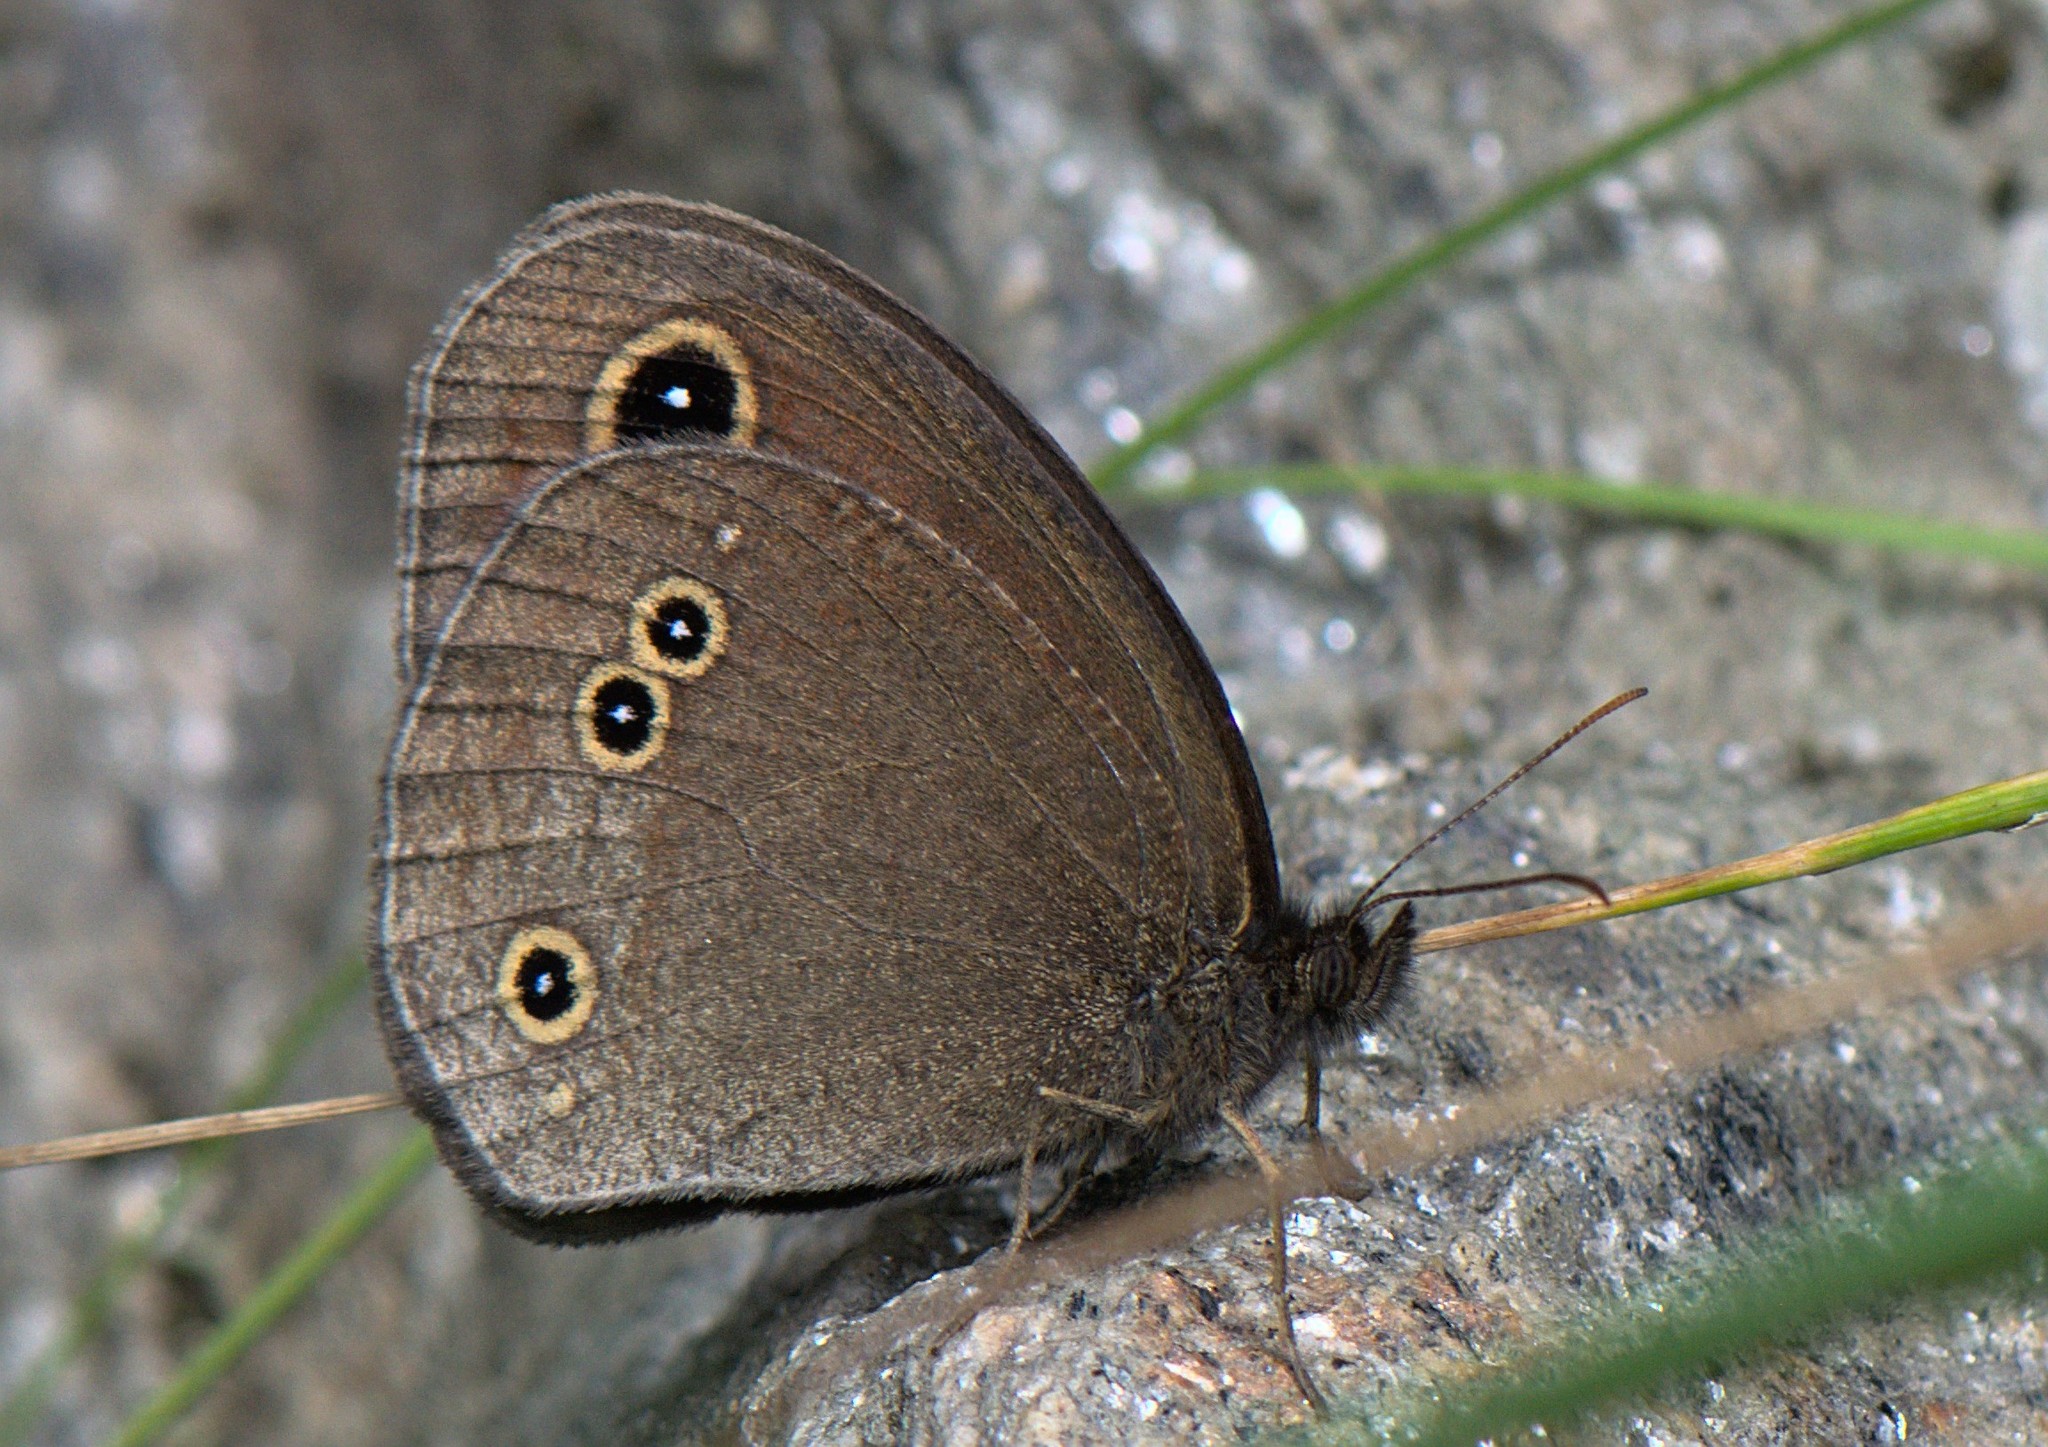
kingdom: Animalia
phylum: Arthropoda
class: Insecta
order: Lepidoptera
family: Nymphalidae
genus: Callerebia
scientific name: Callerebia nirmala
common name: Common argus
